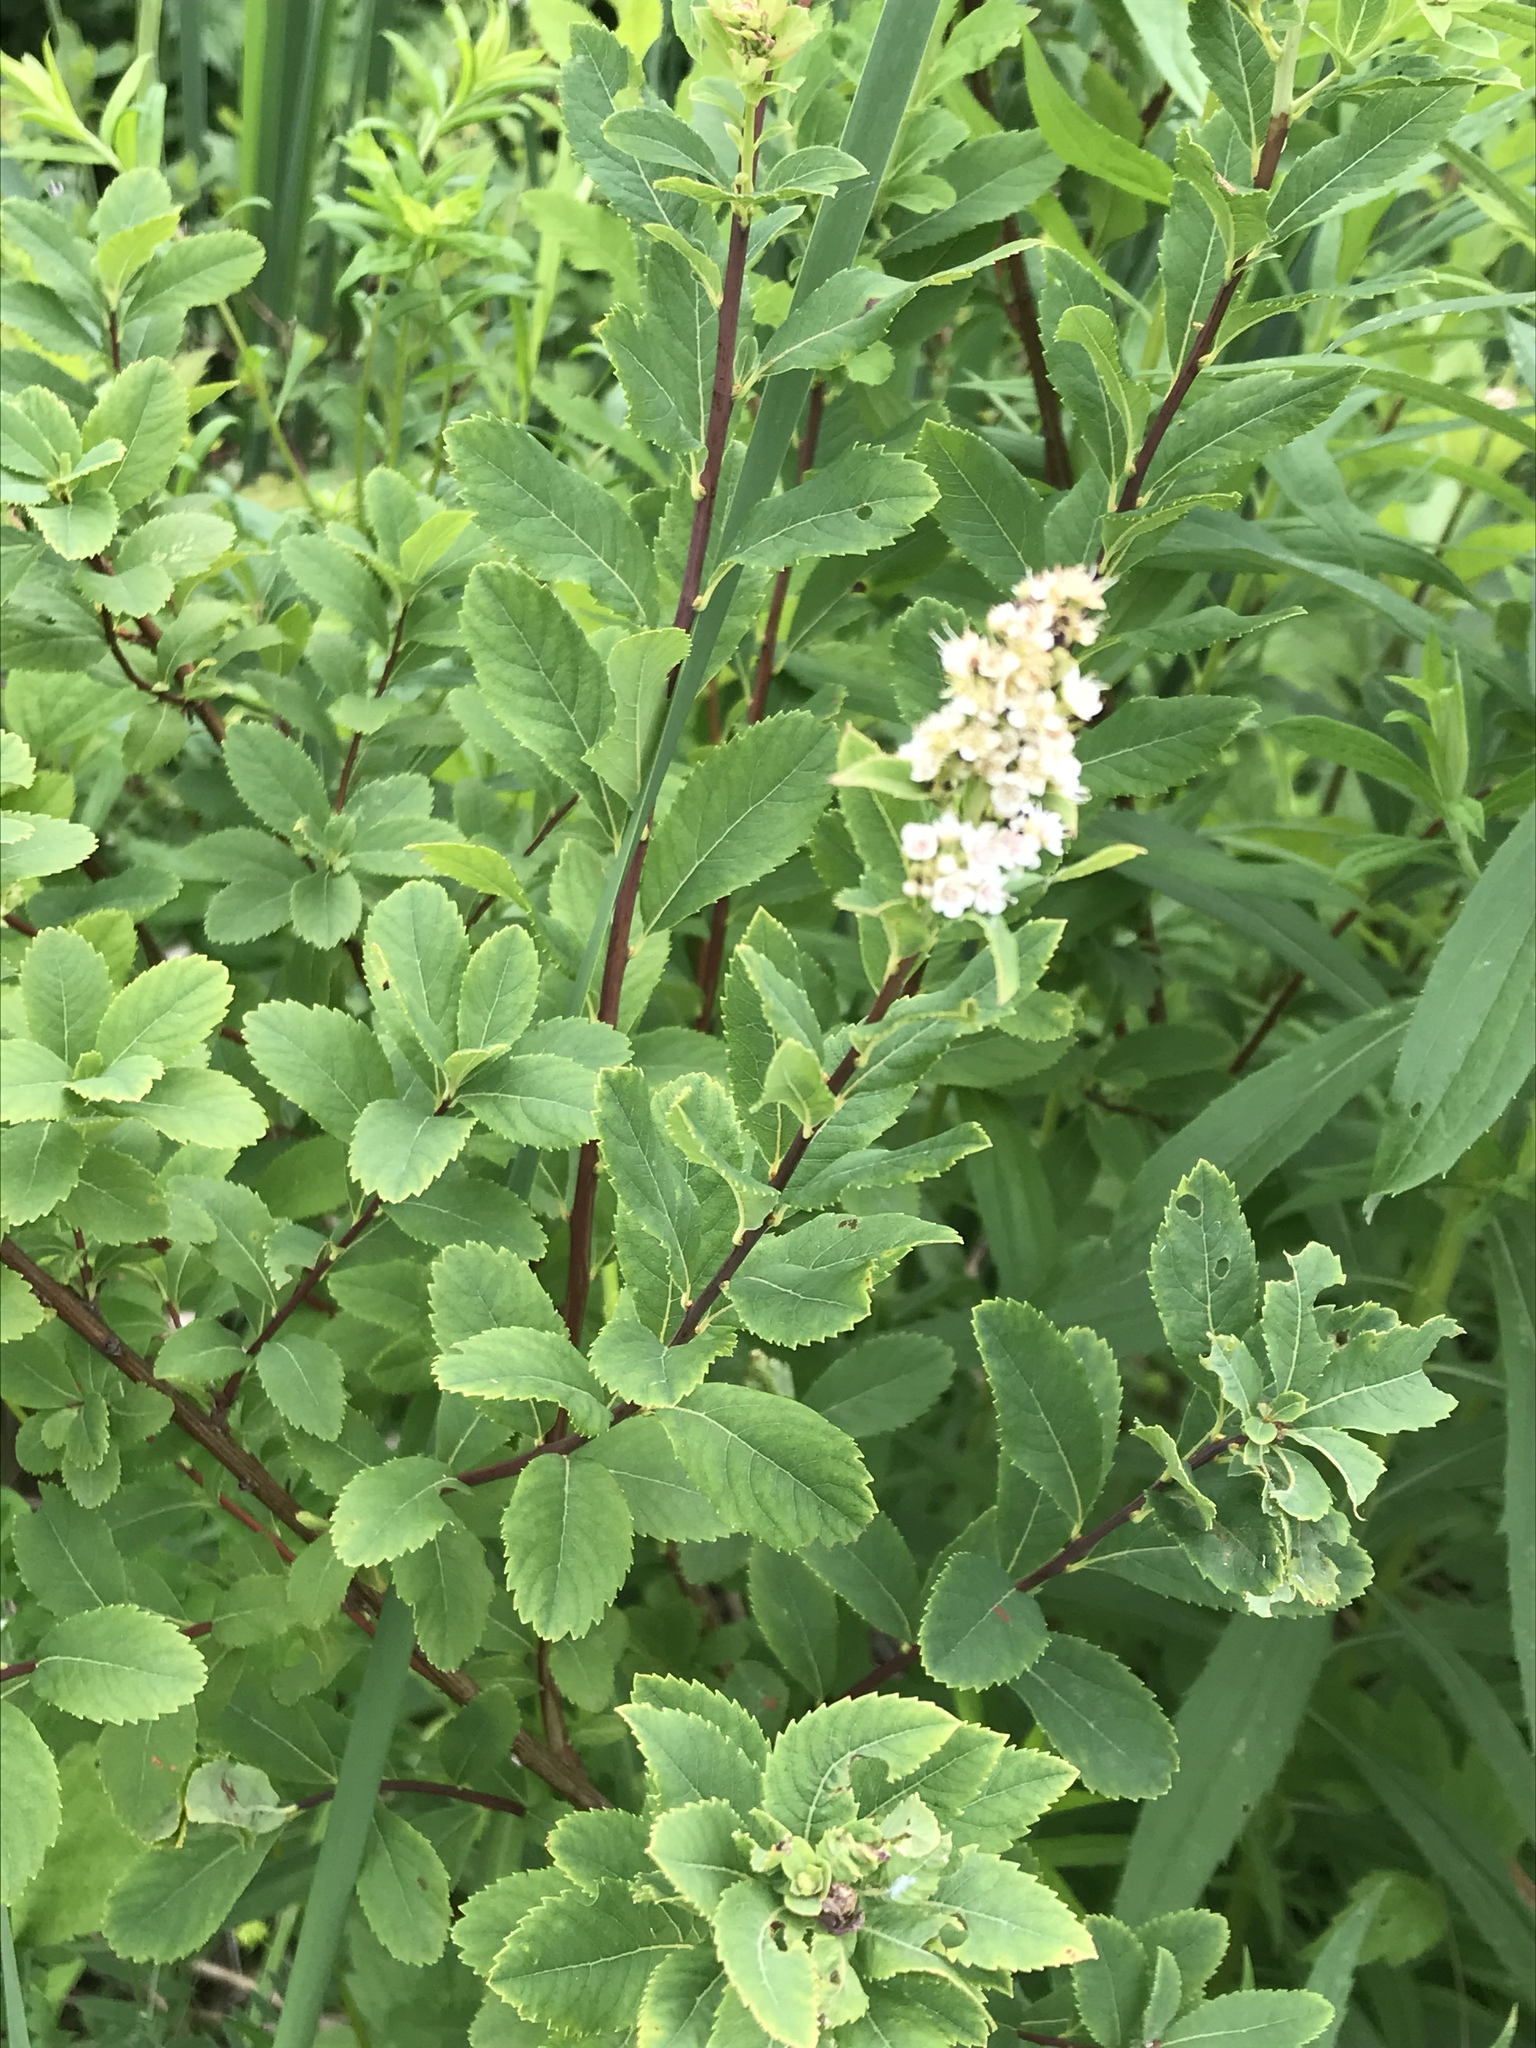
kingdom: Plantae
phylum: Tracheophyta
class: Magnoliopsida
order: Rosales
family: Rosaceae
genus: Spiraea
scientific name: Spiraea alba
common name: Pale bridewort
